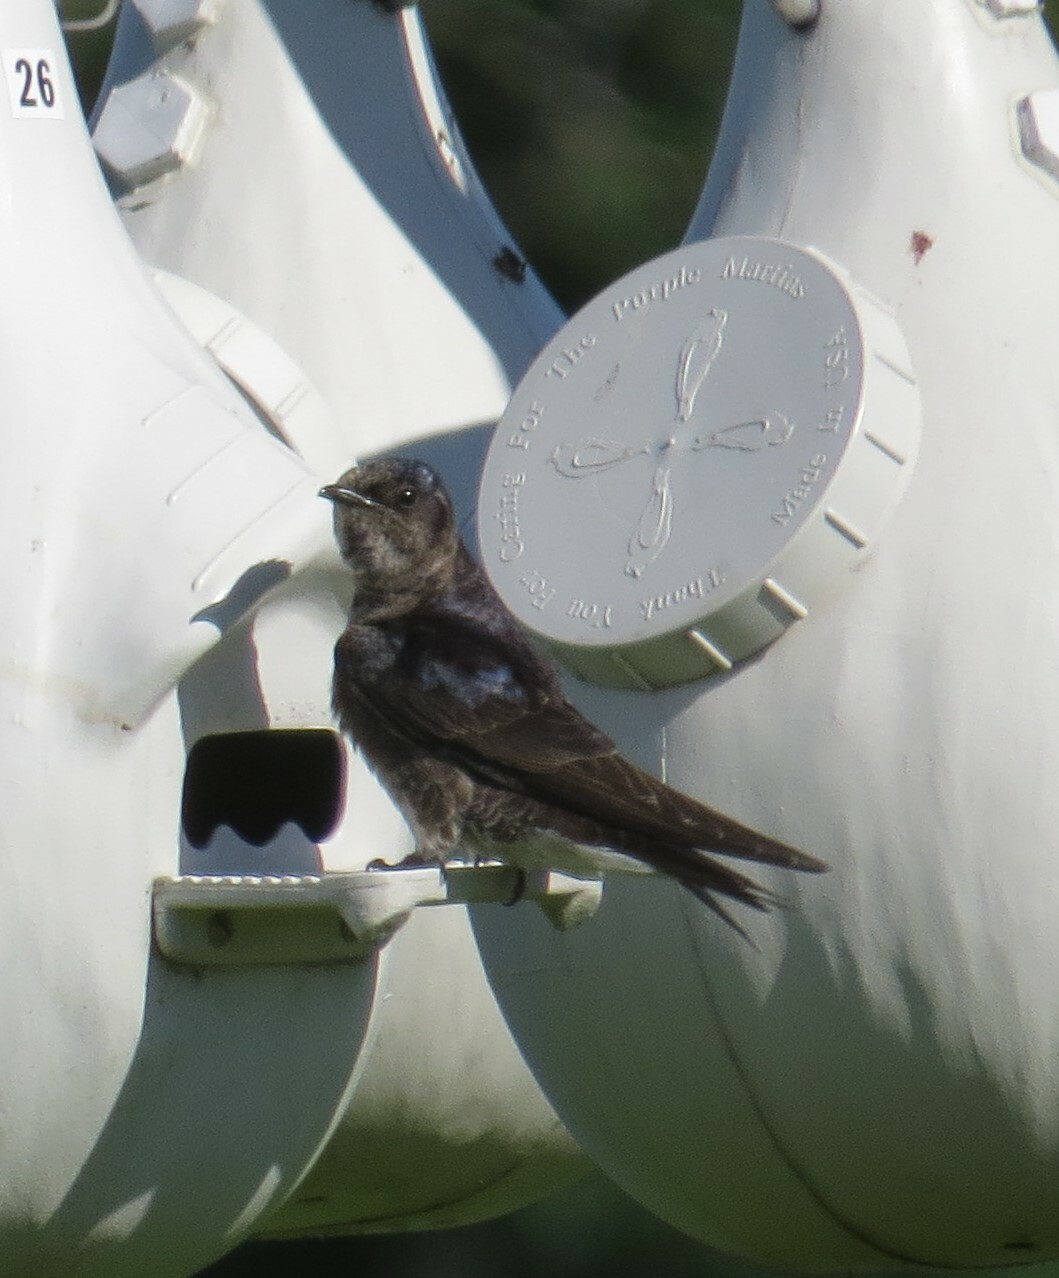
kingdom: Animalia
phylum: Chordata
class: Aves
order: Passeriformes
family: Hirundinidae
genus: Progne
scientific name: Progne subis
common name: Purple martin
